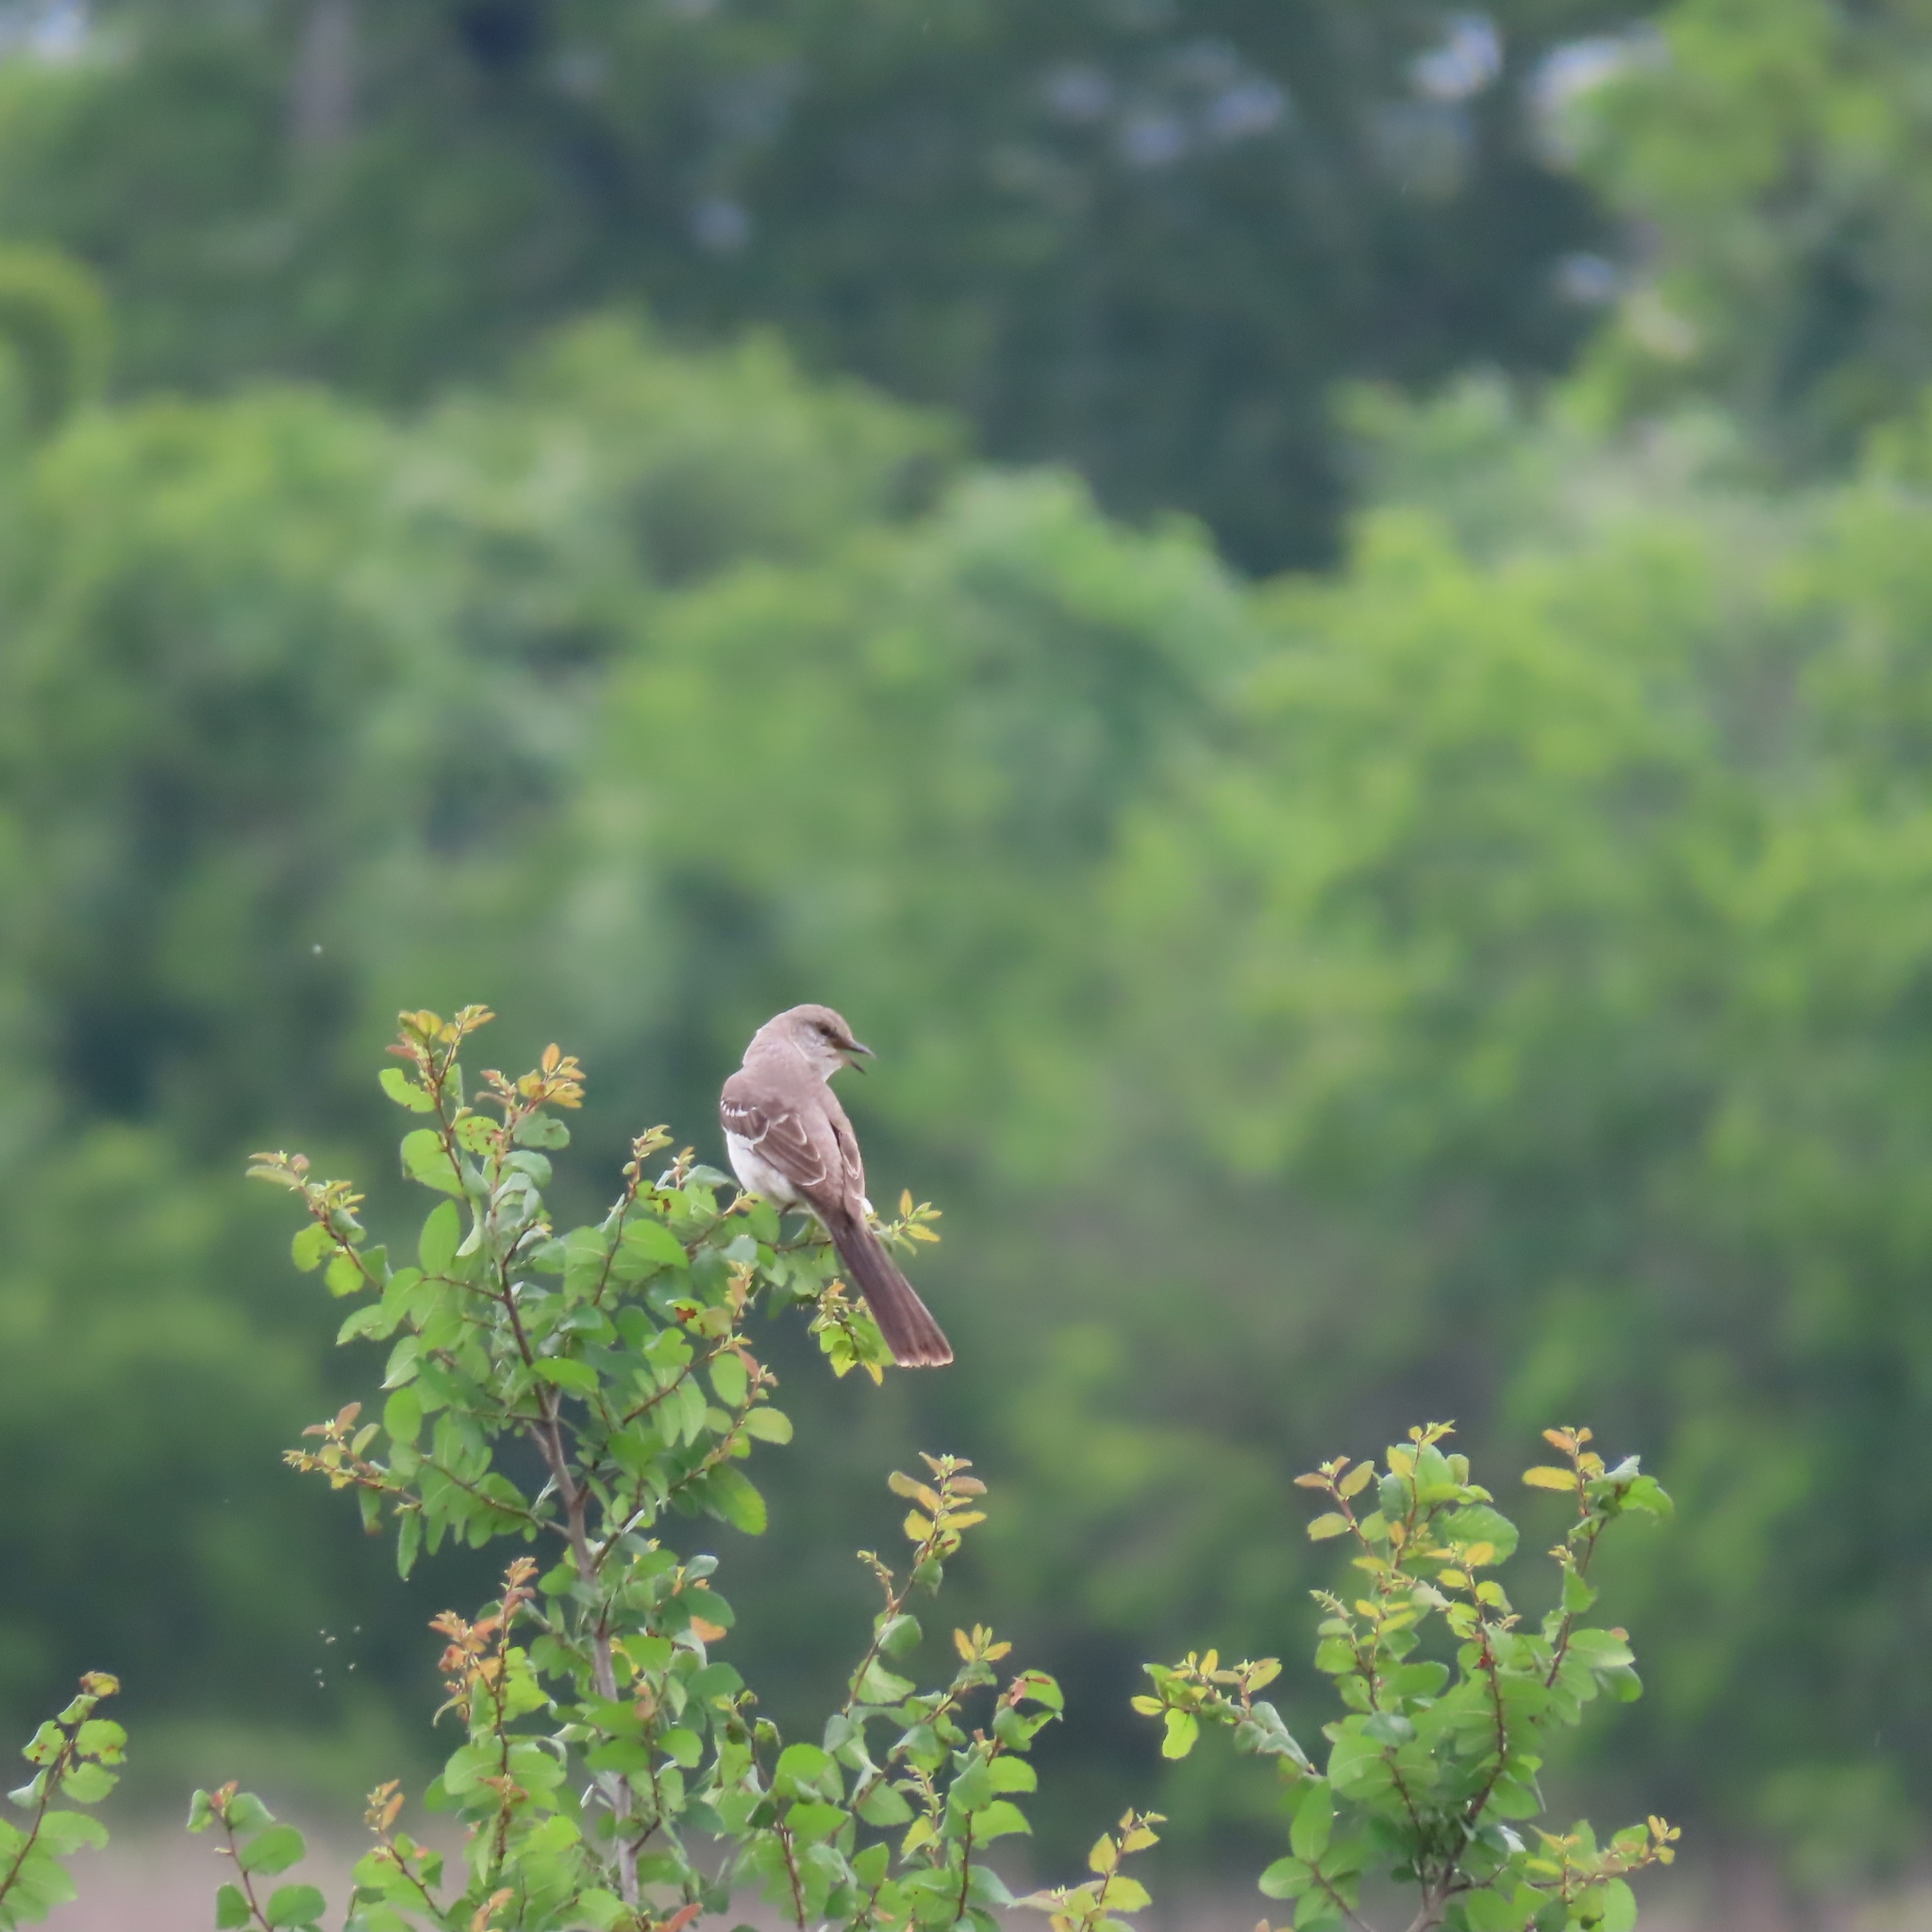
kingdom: Animalia
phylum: Chordata
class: Aves
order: Passeriformes
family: Mimidae
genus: Mimus
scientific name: Mimus polyglottos
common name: Northern mockingbird
